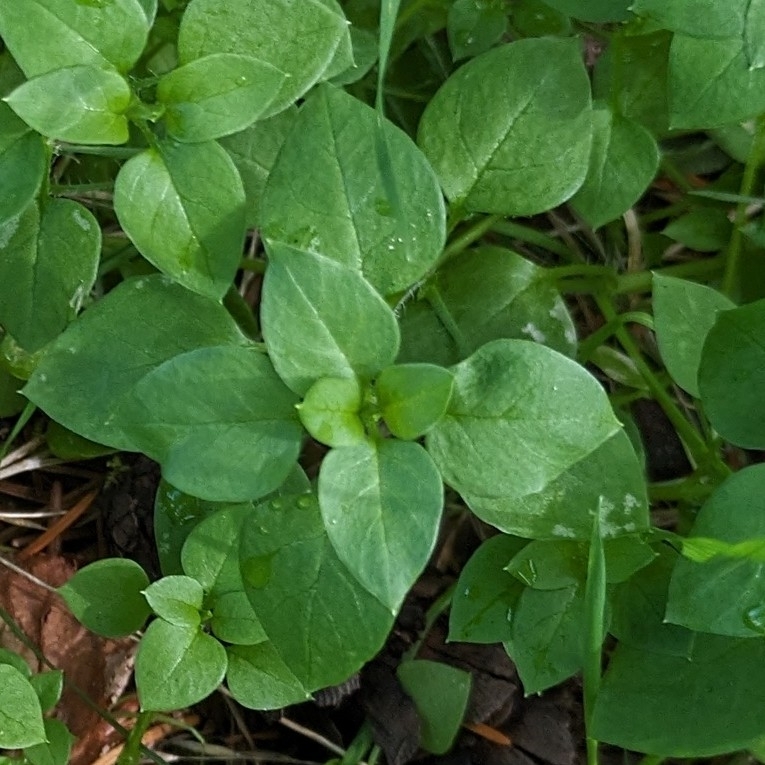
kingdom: Plantae
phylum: Tracheophyta
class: Magnoliopsida
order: Caryophyllales
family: Caryophyllaceae
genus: Stellaria
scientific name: Stellaria media
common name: Common chickweed
